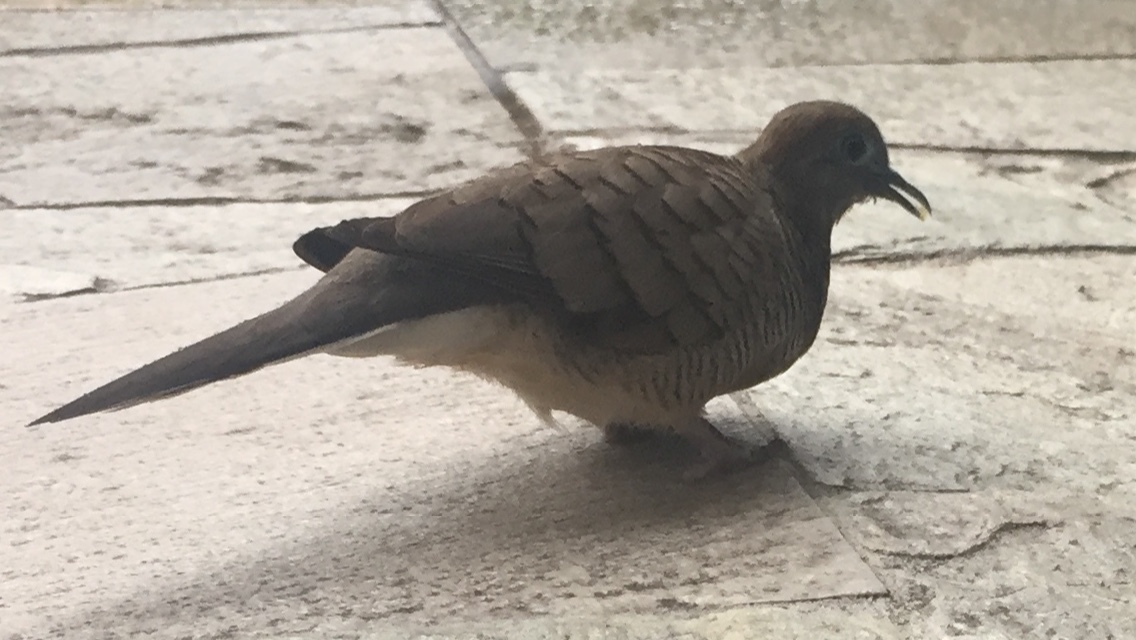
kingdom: Animalia
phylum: Chordata
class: Aves
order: Columbiformes
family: Columbidae
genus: Geopelia
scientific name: Geopelia striata
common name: Zebra dove
